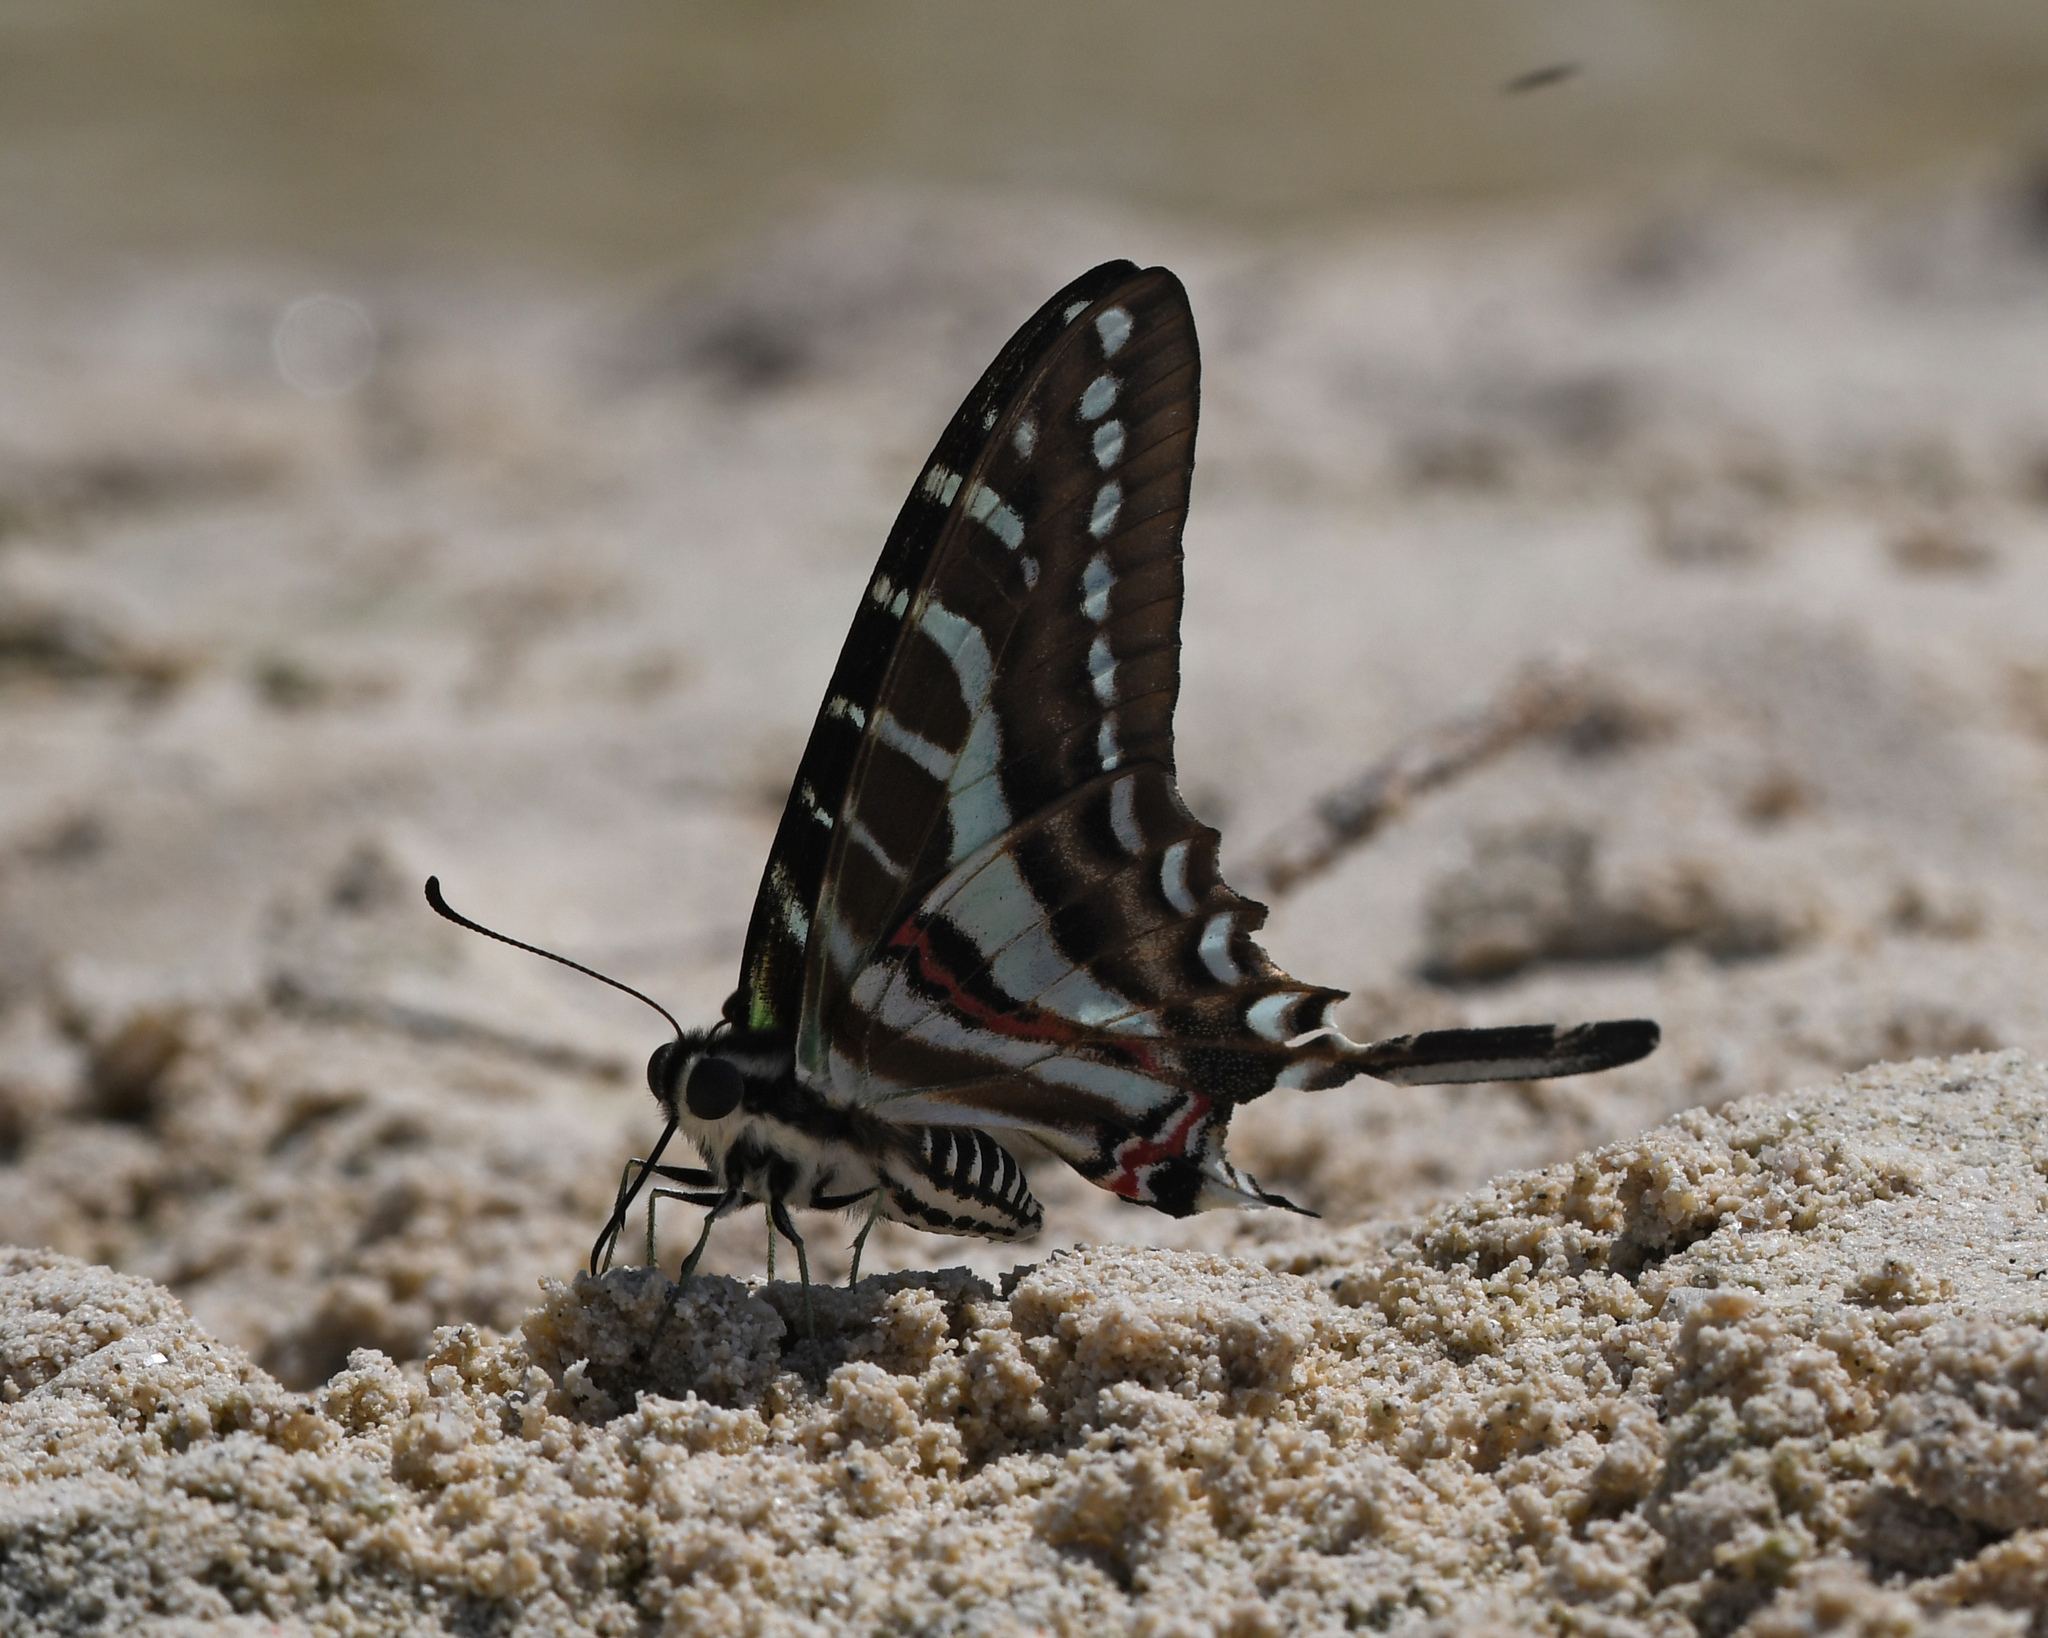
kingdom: Animalia
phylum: Arthropoda
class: Insecta
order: Lepidoptera
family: Papilionidae
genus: Eurytides
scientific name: Eurytides
